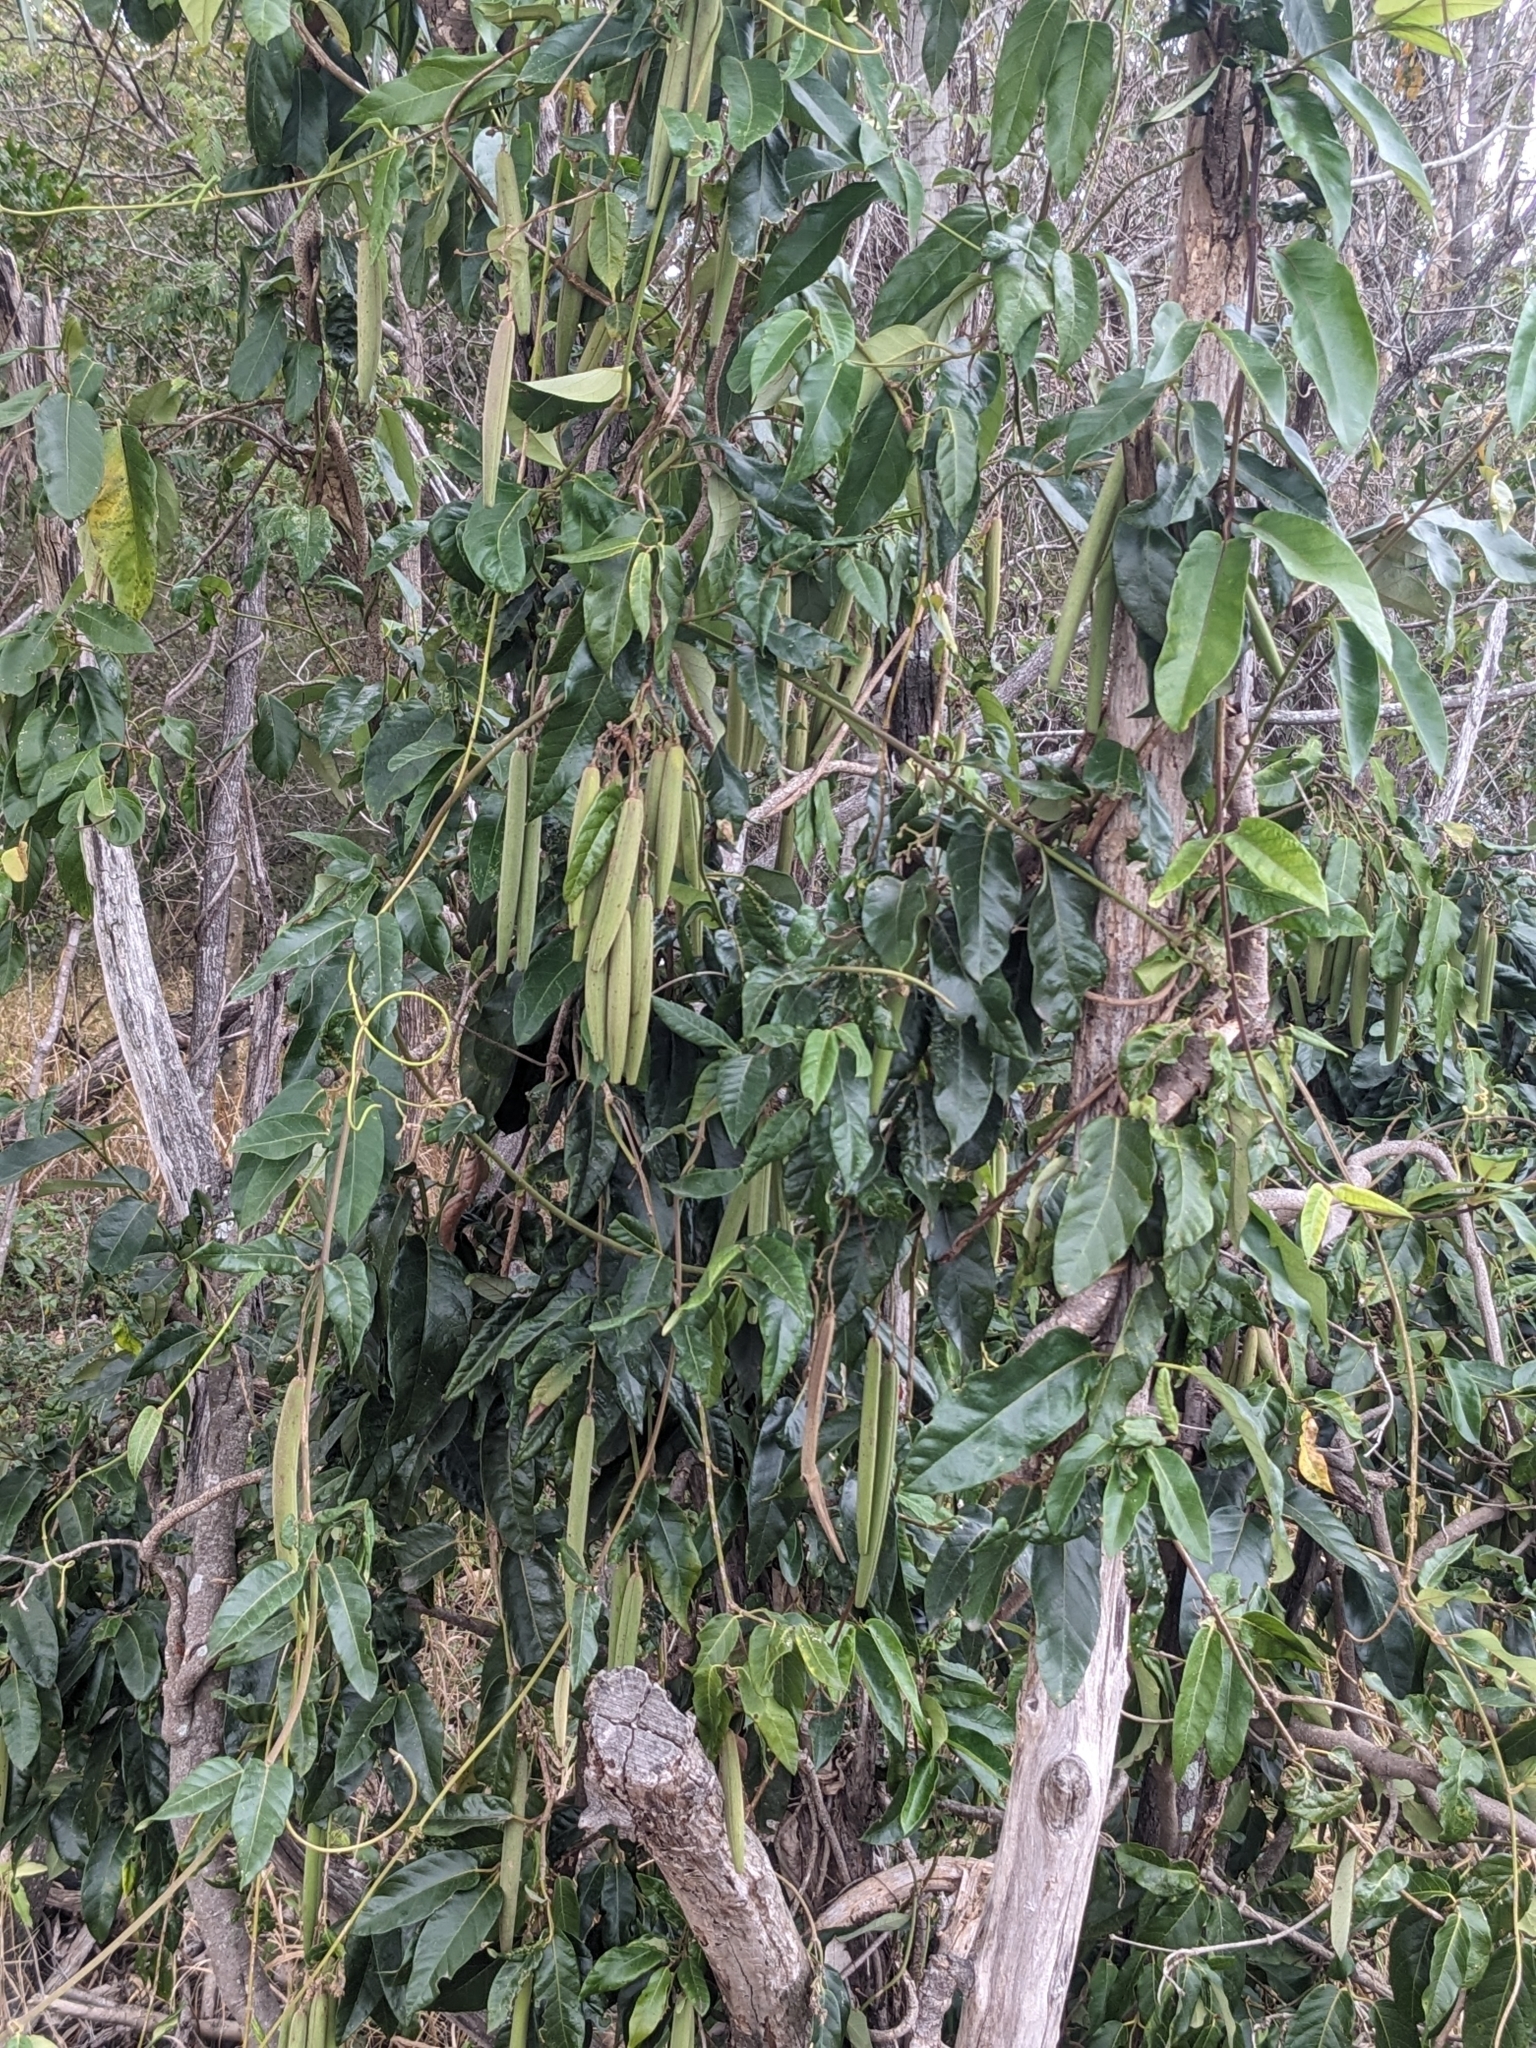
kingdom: Plantae
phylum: Tracheophyta
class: Magnoliopsida
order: Gentianales
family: Apocynaceae
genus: Parsonsia
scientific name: Parsonsia straminea
